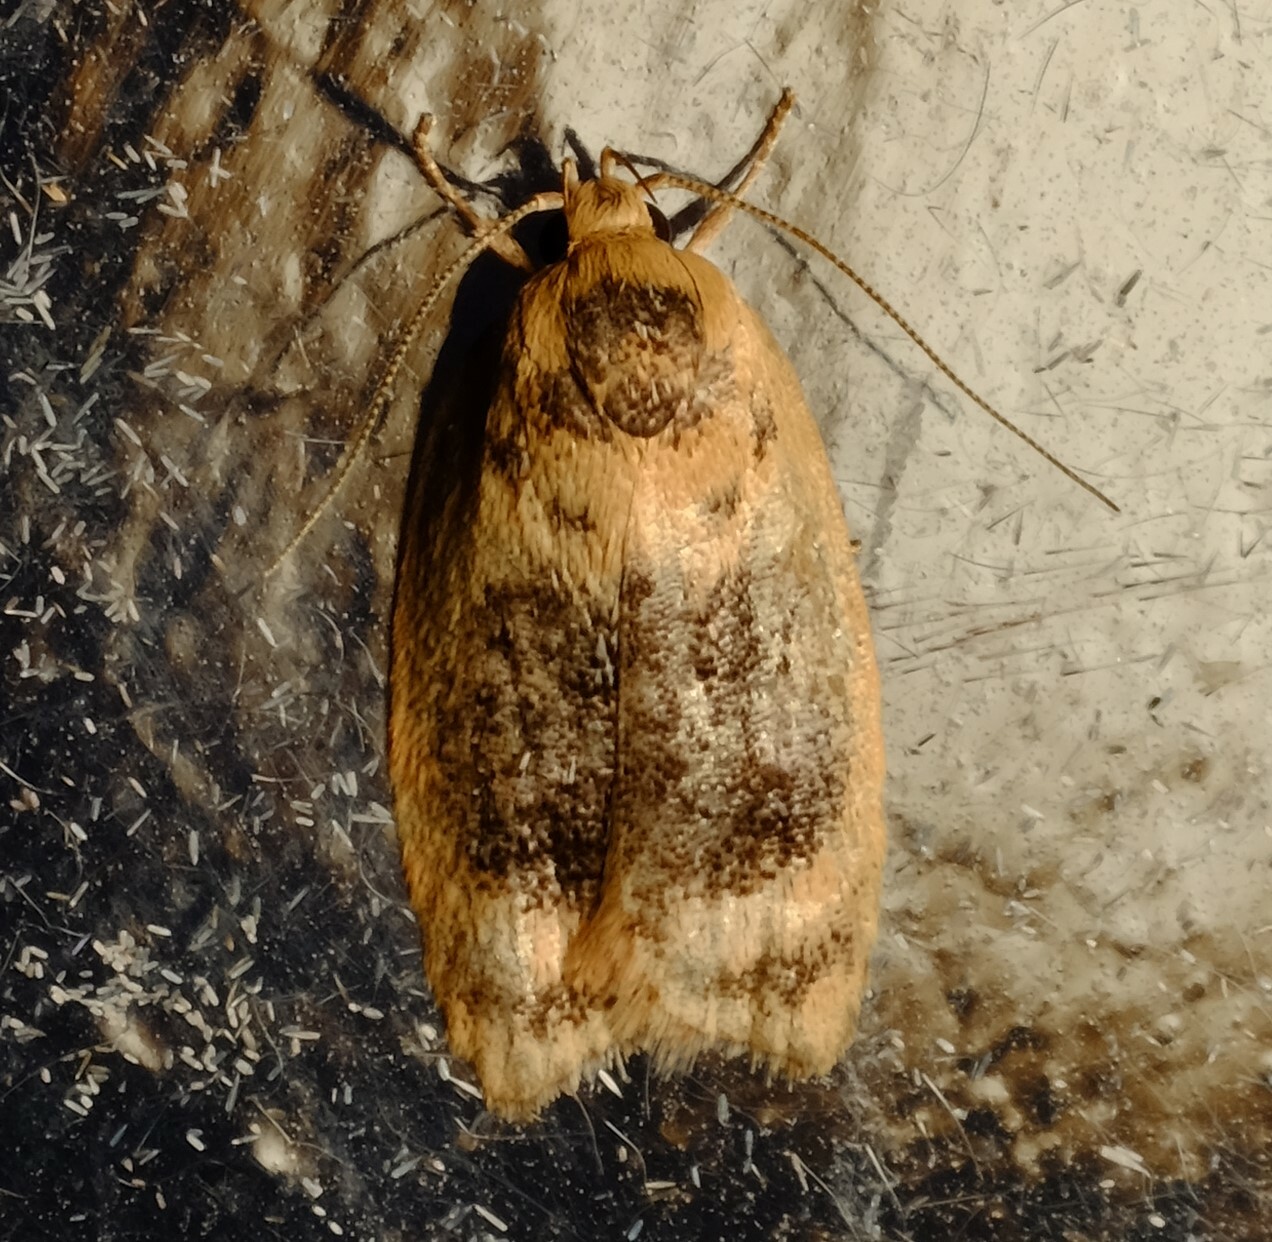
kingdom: Animalia
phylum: Arthropoda
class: Insecta
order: Lepidoptera
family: Oecophoridae
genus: Garrha
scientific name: Garrha ocellifera
